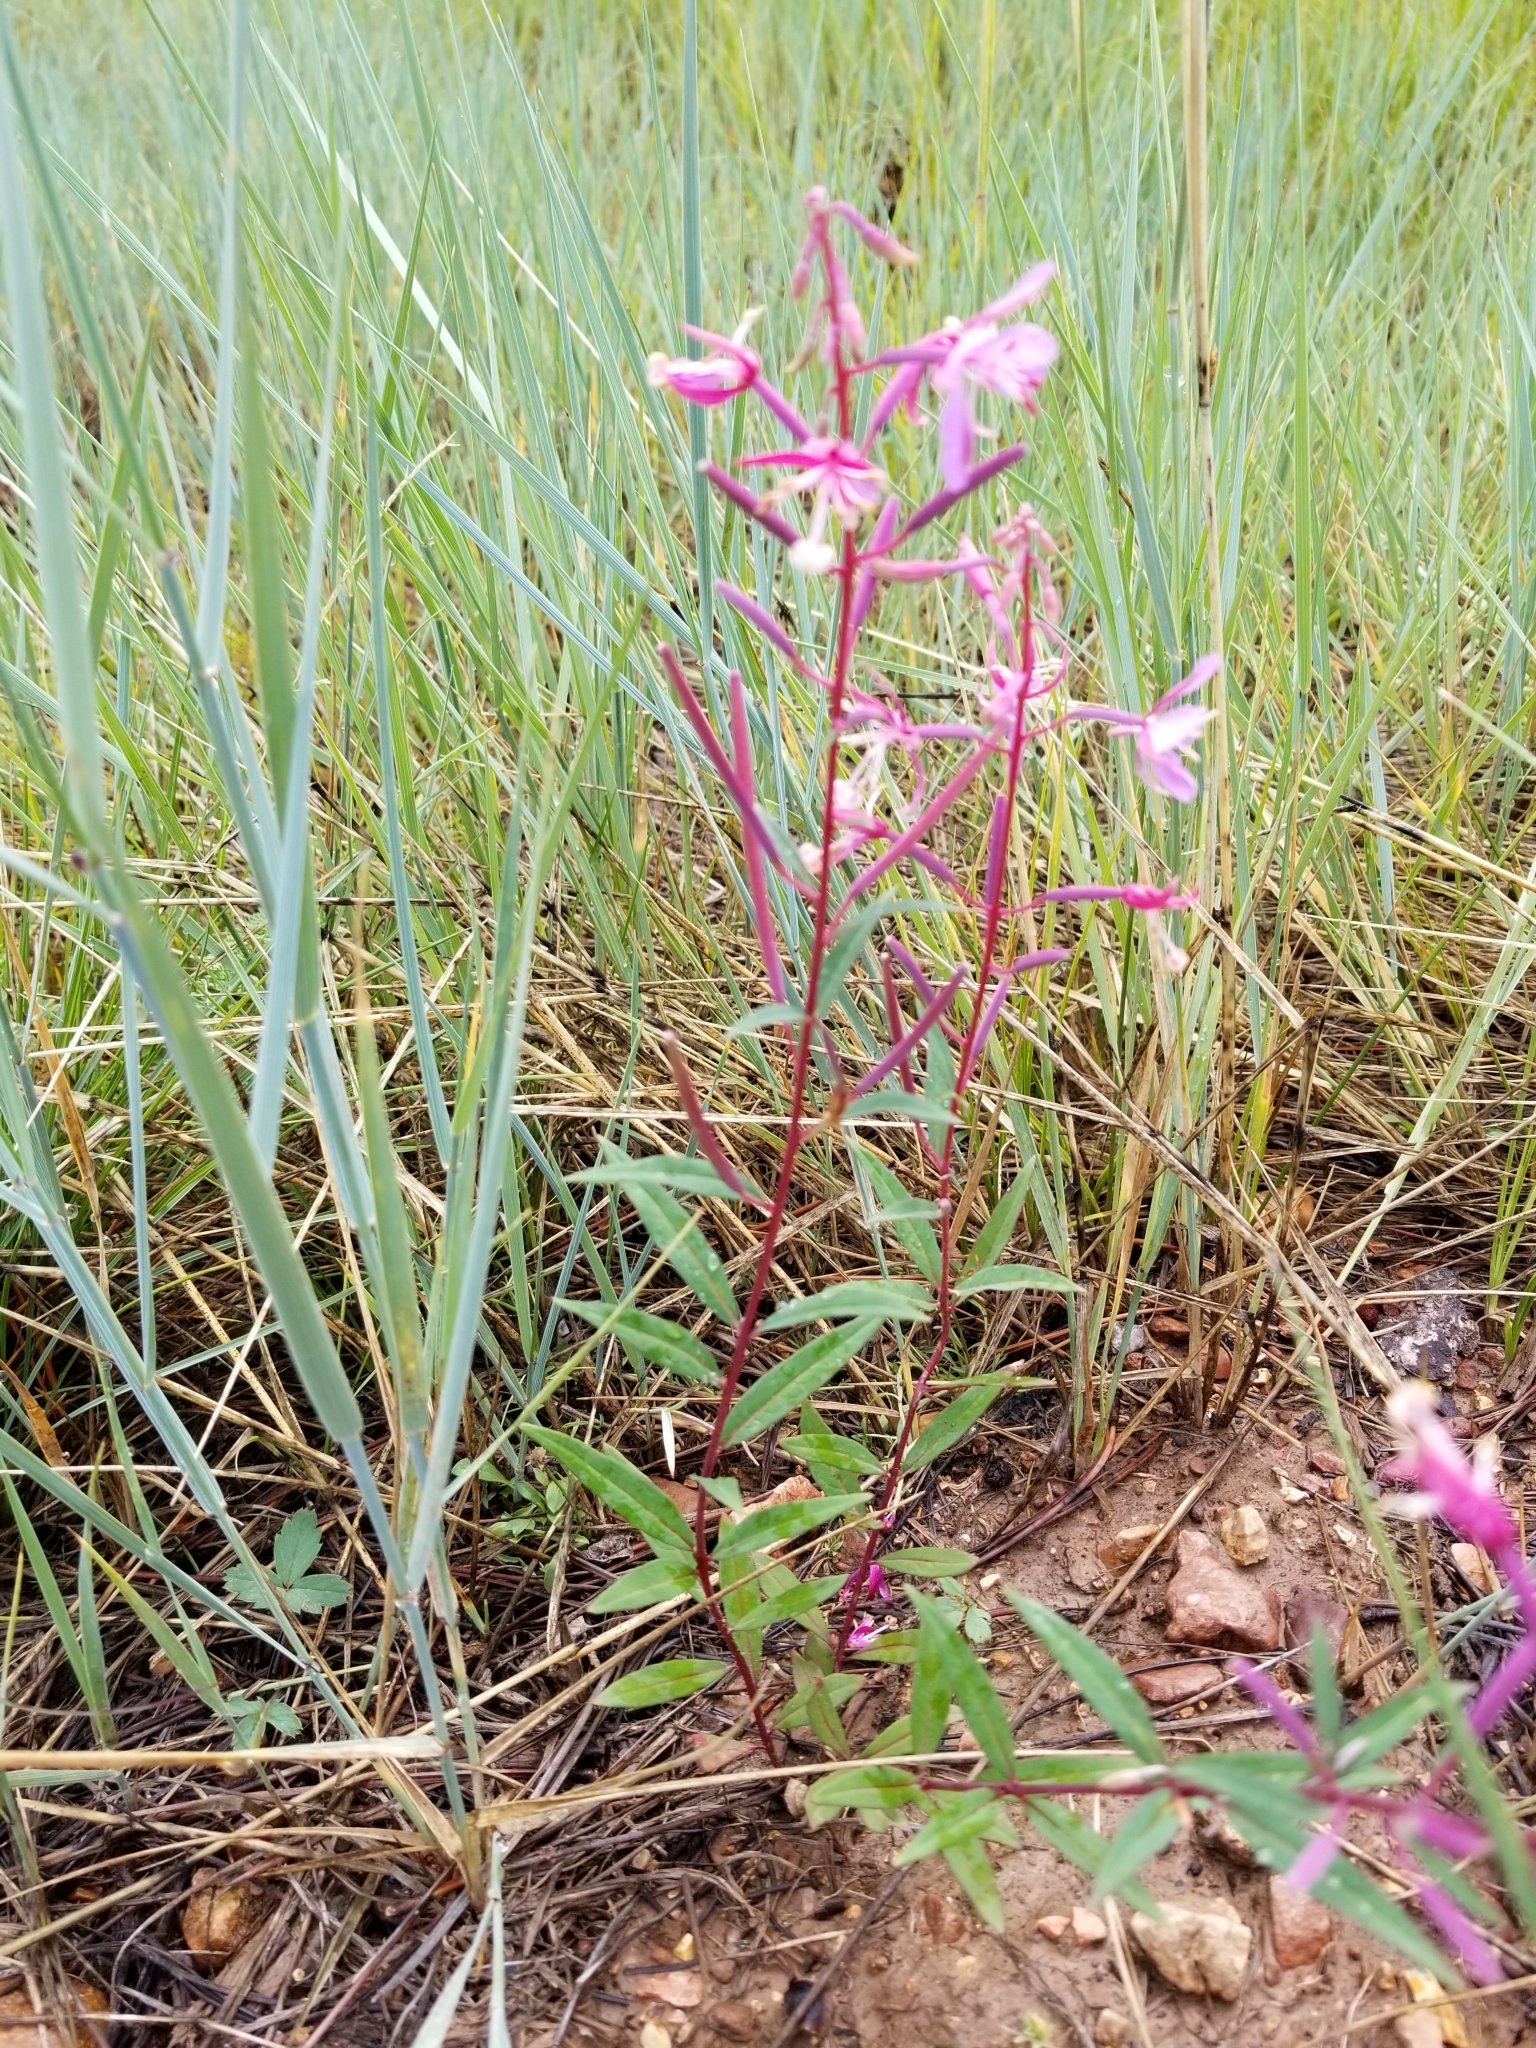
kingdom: Plantae
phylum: Tracheophyta
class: Magnoliopsida
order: Myrtales
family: Onagraceae
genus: Chamaenerion
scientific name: Chamaenerion angustifolium
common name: Fireweed
